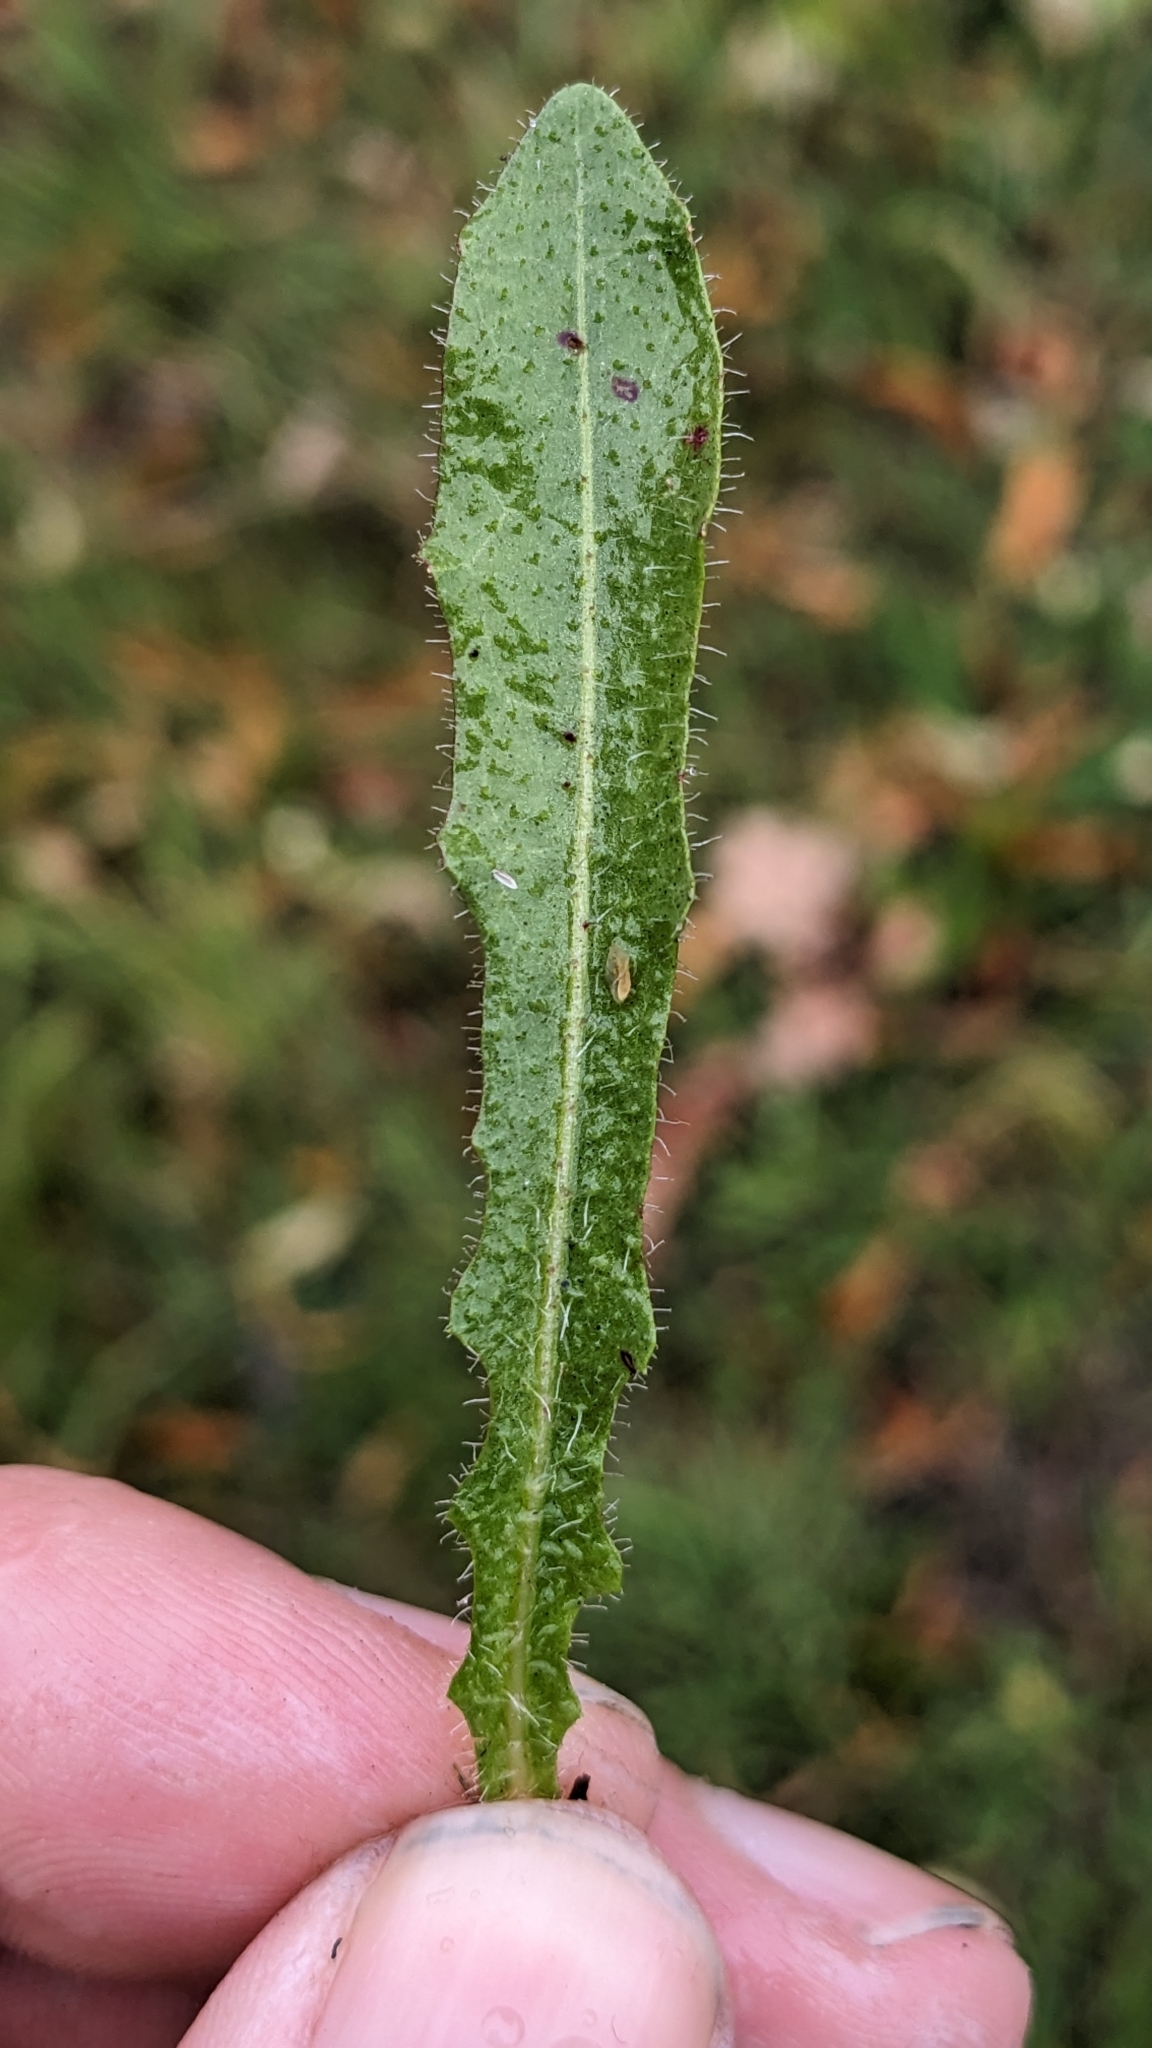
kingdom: Plantae
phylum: Tracheophyta
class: Magnoliopsida
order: Asterales
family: Asteraceae
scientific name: Asteraceae
